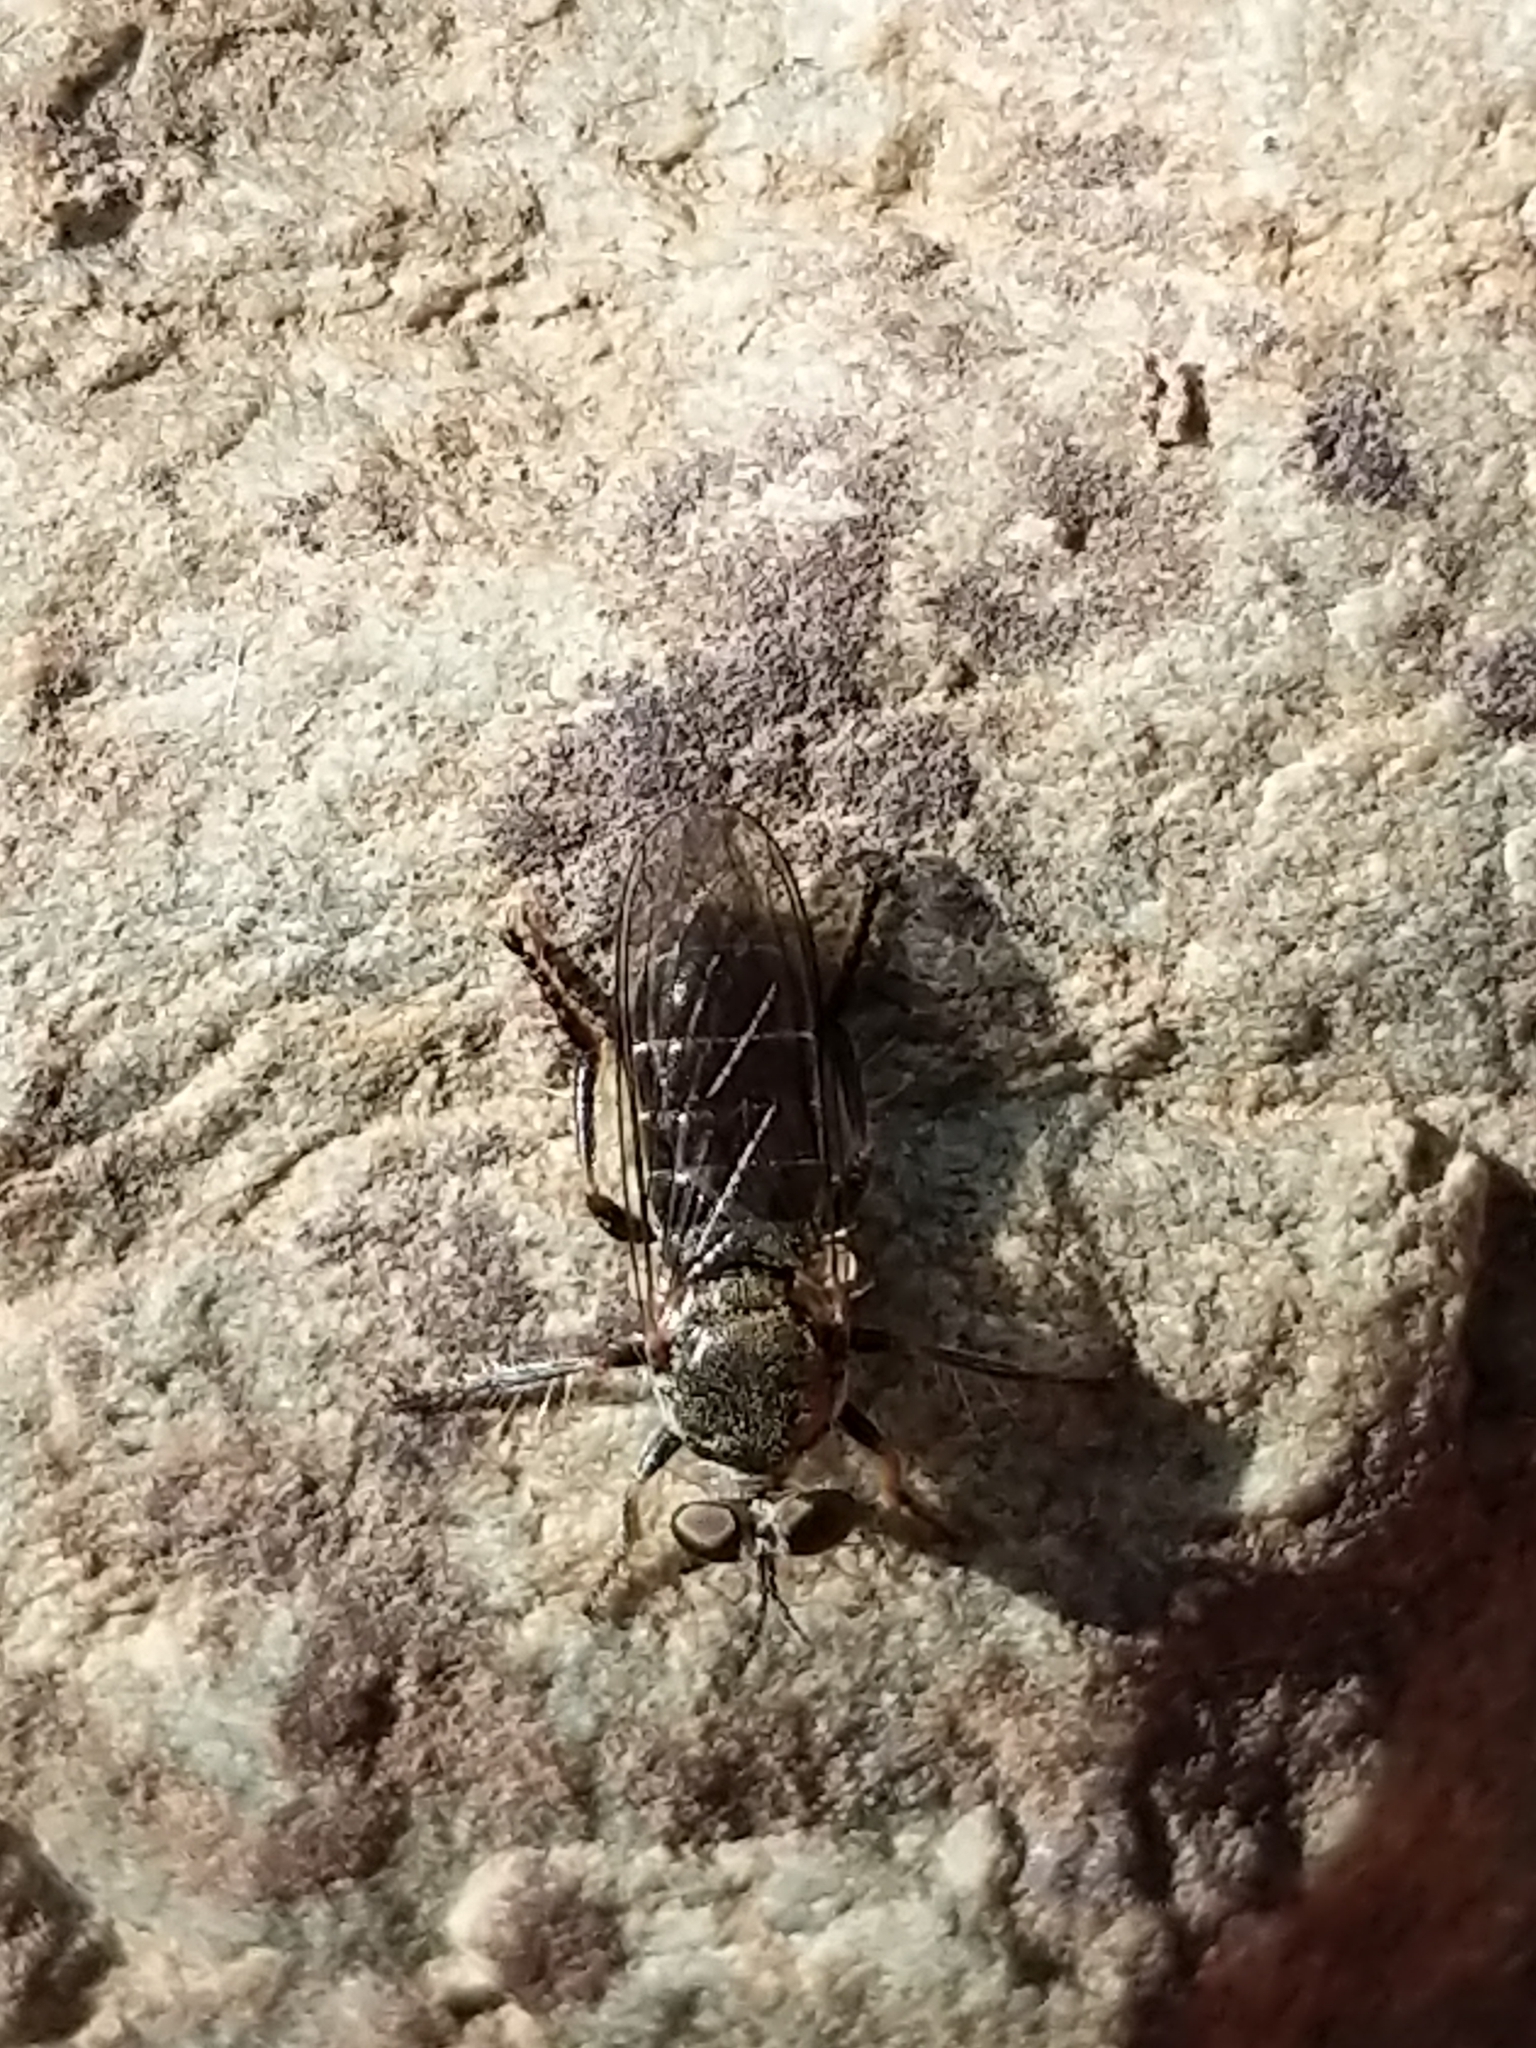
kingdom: Animalia
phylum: Arthropoda
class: Insecta
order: Diptera
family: Asilidae
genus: Atomosia
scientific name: Atomosia puella
